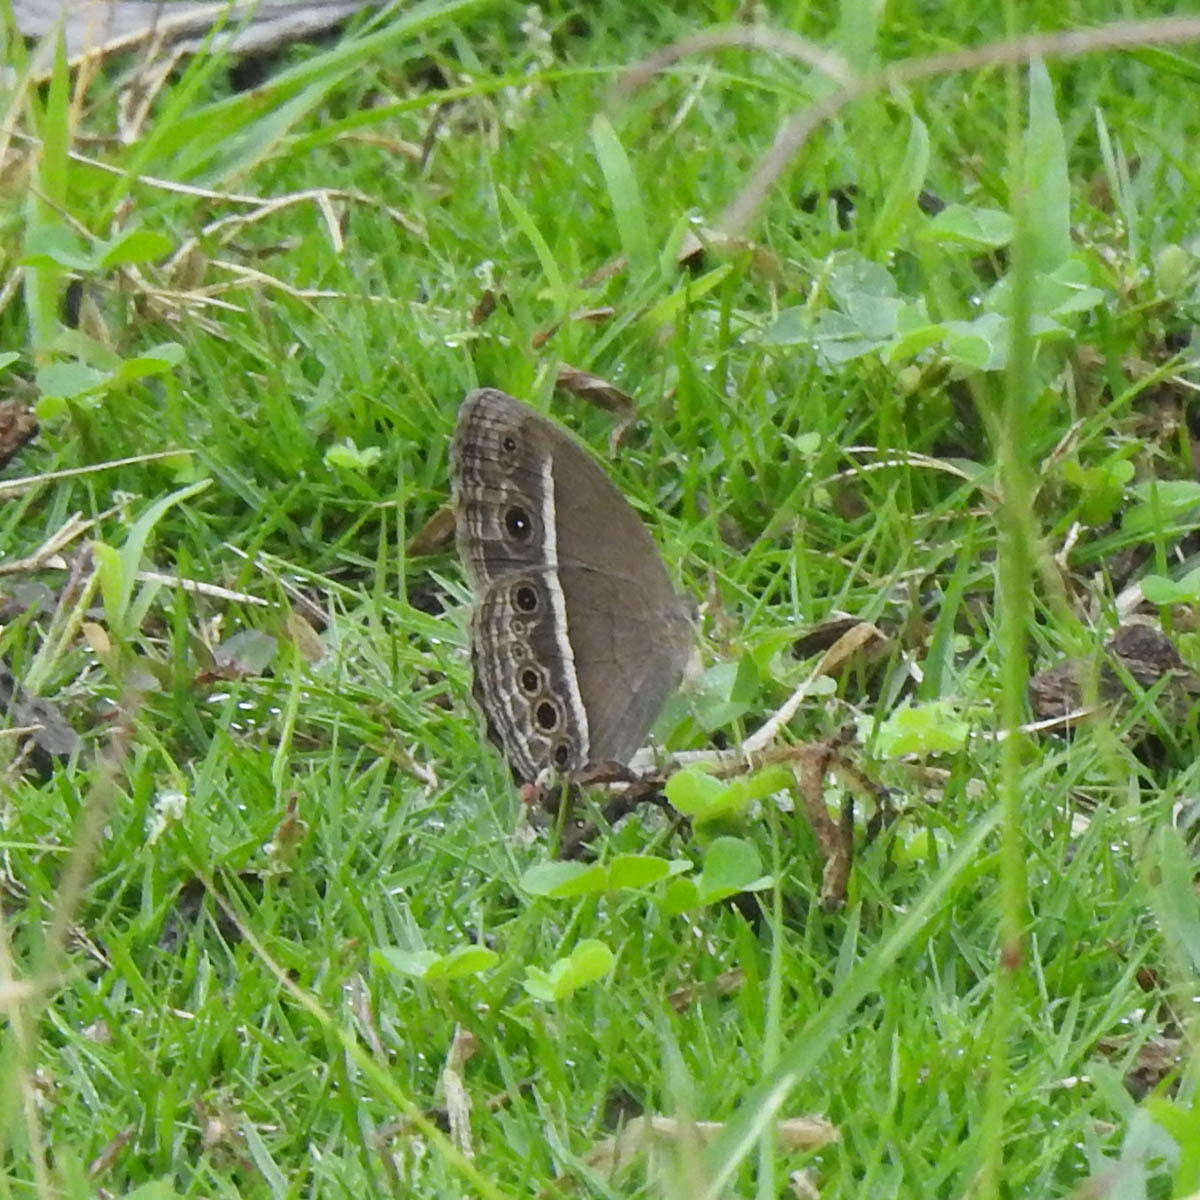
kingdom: Animalia
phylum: Arthropoda
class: Insecta
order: Lepidoptera
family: Nymphalidae
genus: Mycalesis
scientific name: Mycalesis mineus
